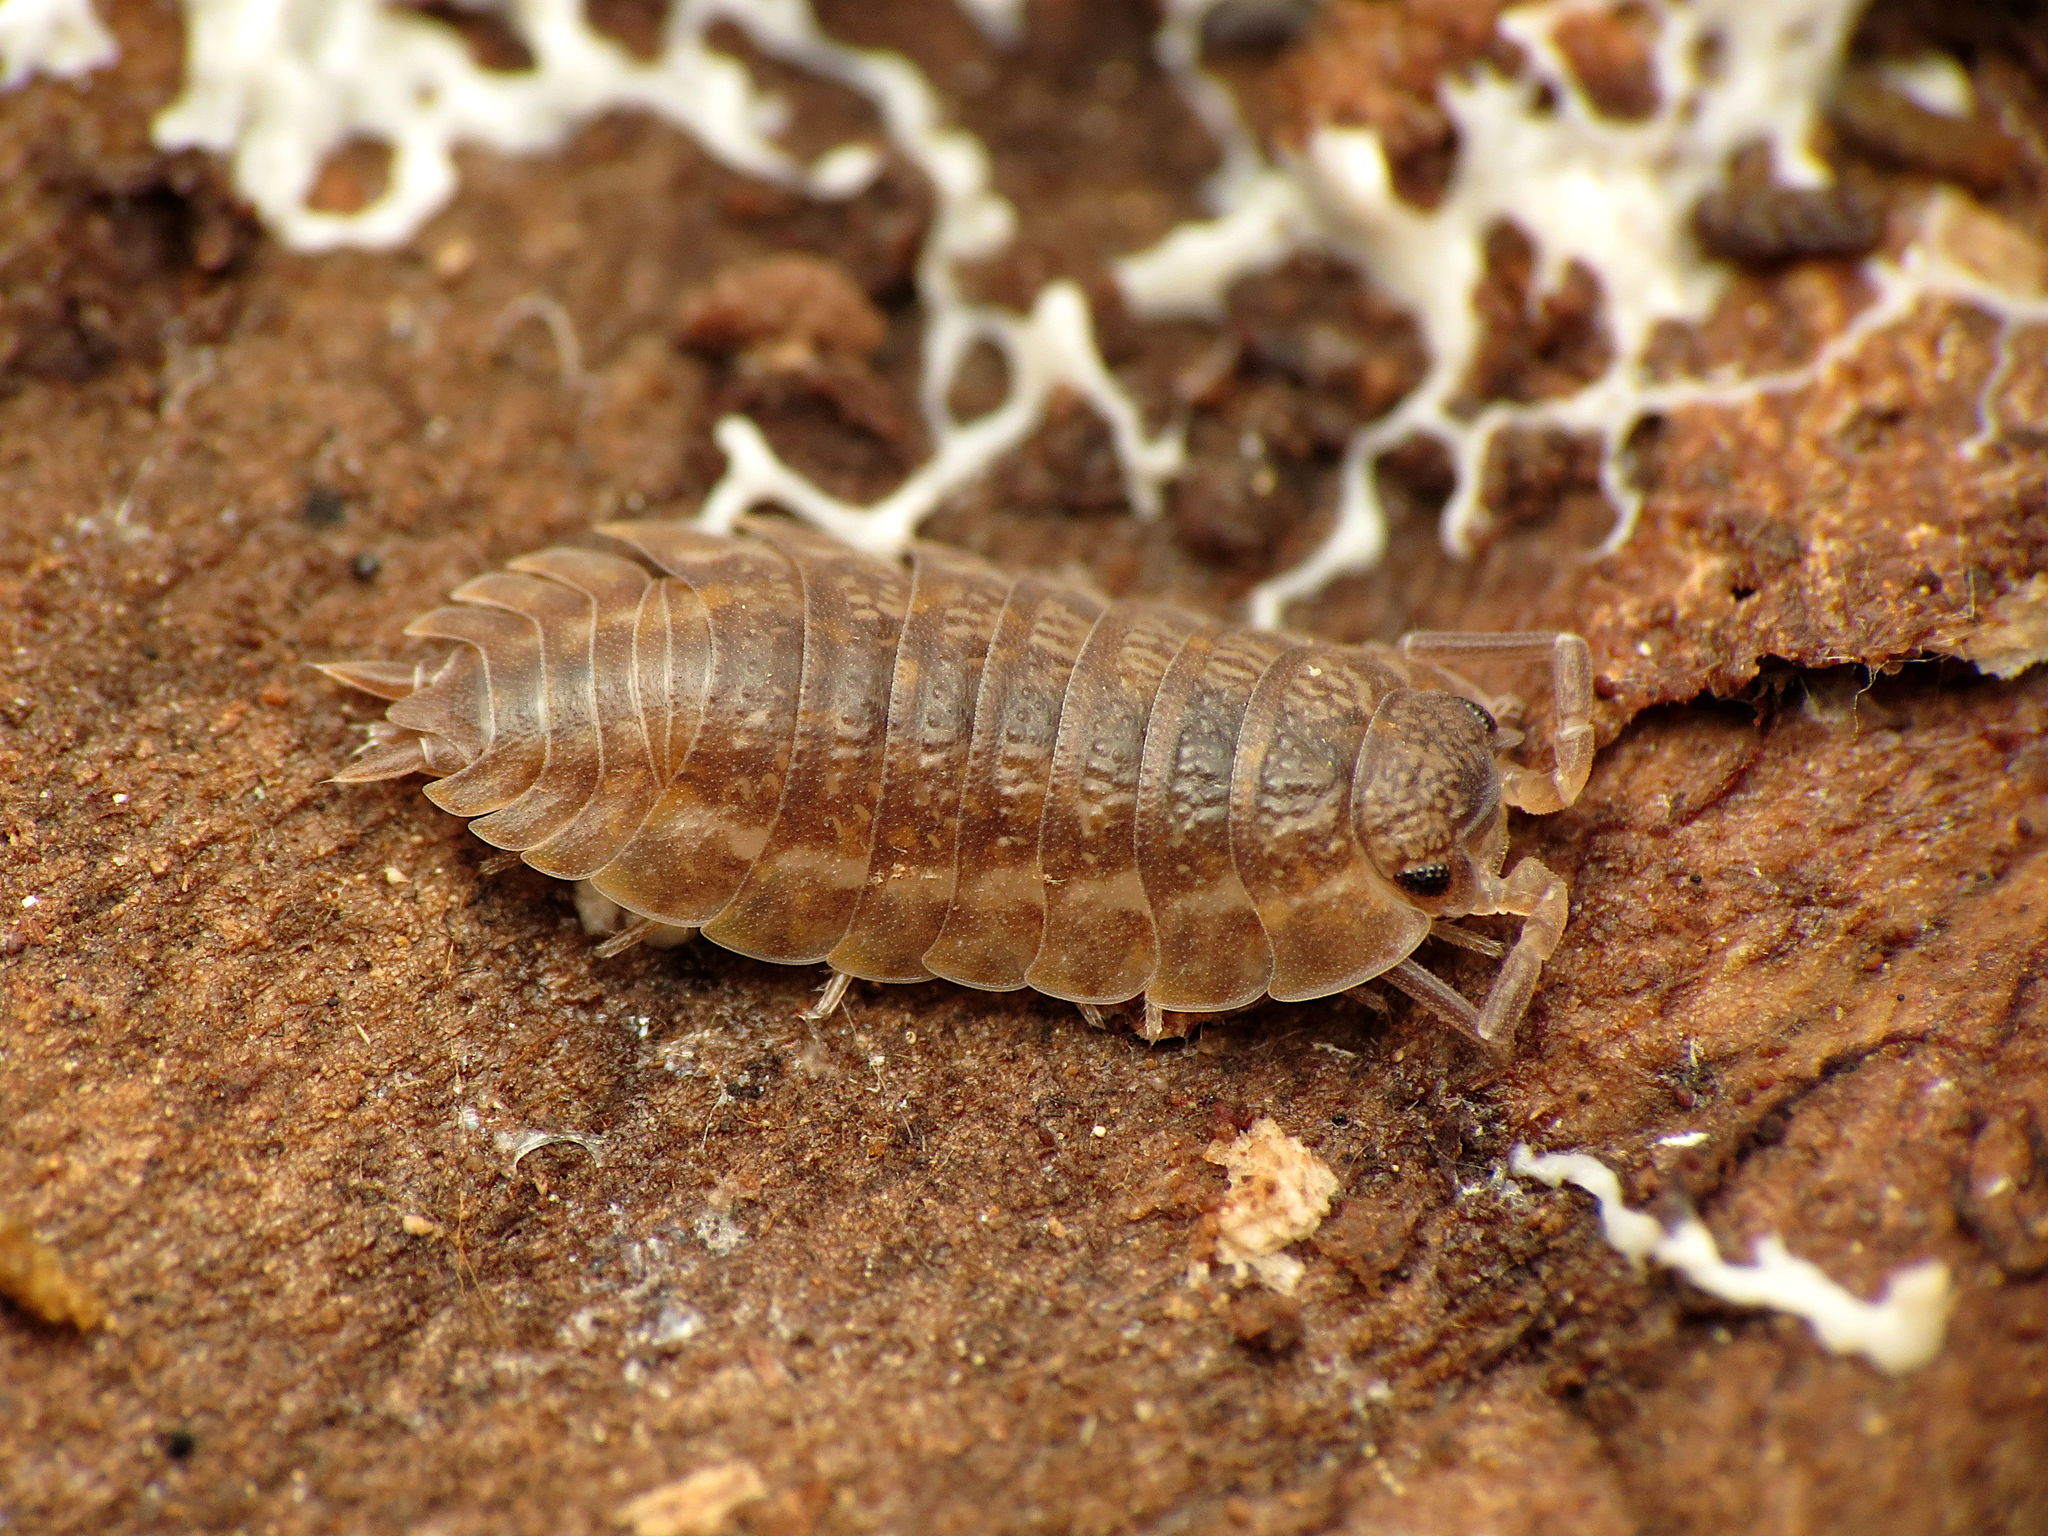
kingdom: Animalia
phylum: Arthropoda
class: Malacostraca
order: Isopoda
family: Trachelipodidae
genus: Trachelipus
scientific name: Trachelipus rathkii
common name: Isopod
